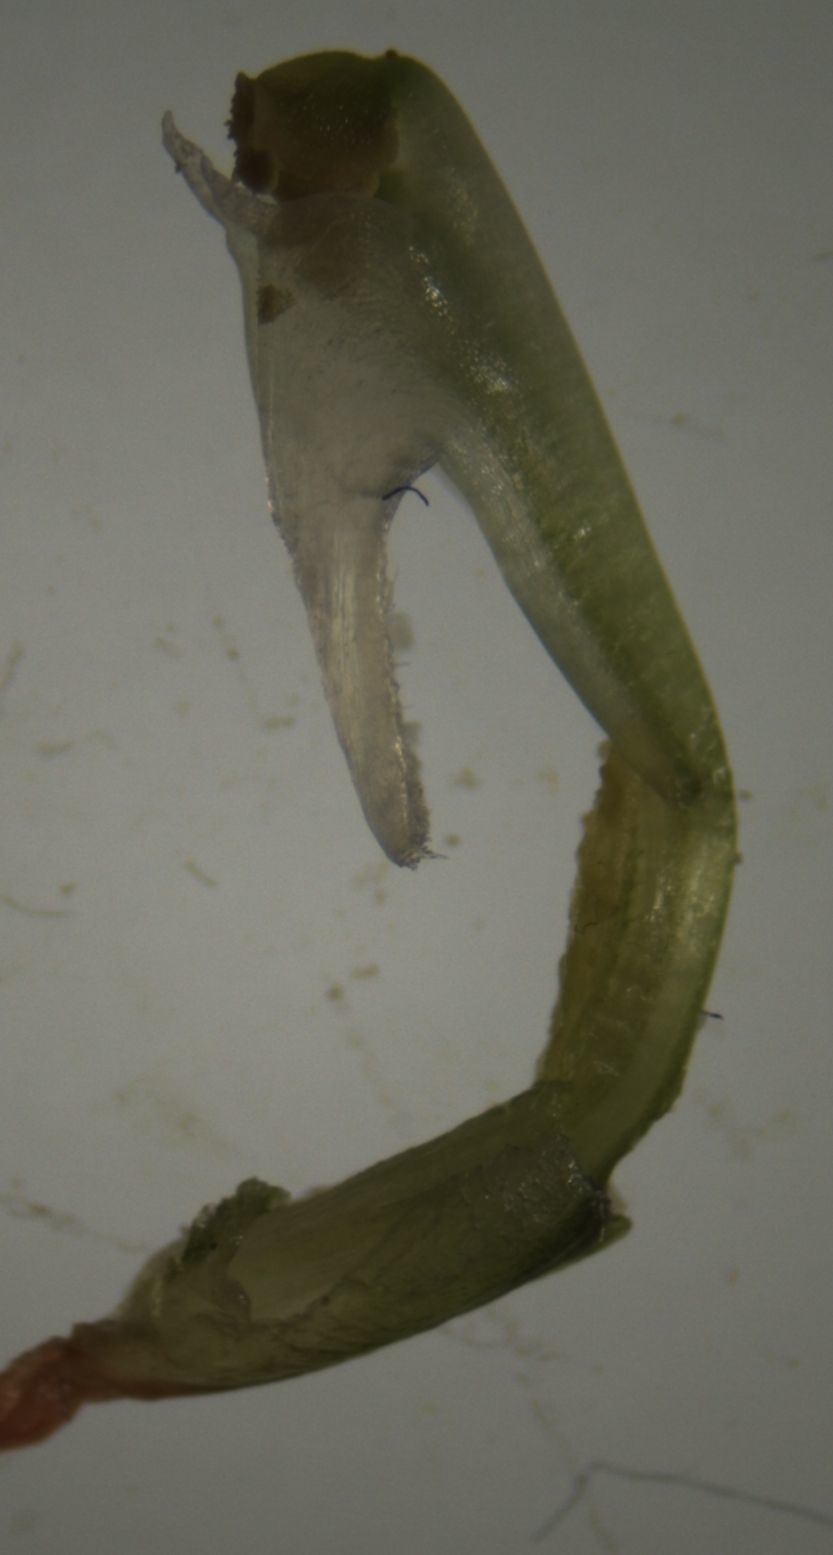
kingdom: Plantae
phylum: Tracheophyta
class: Liliopsida
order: Asparagales
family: Orchidaceae
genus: Pterostylis
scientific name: Pterostylis graminea
